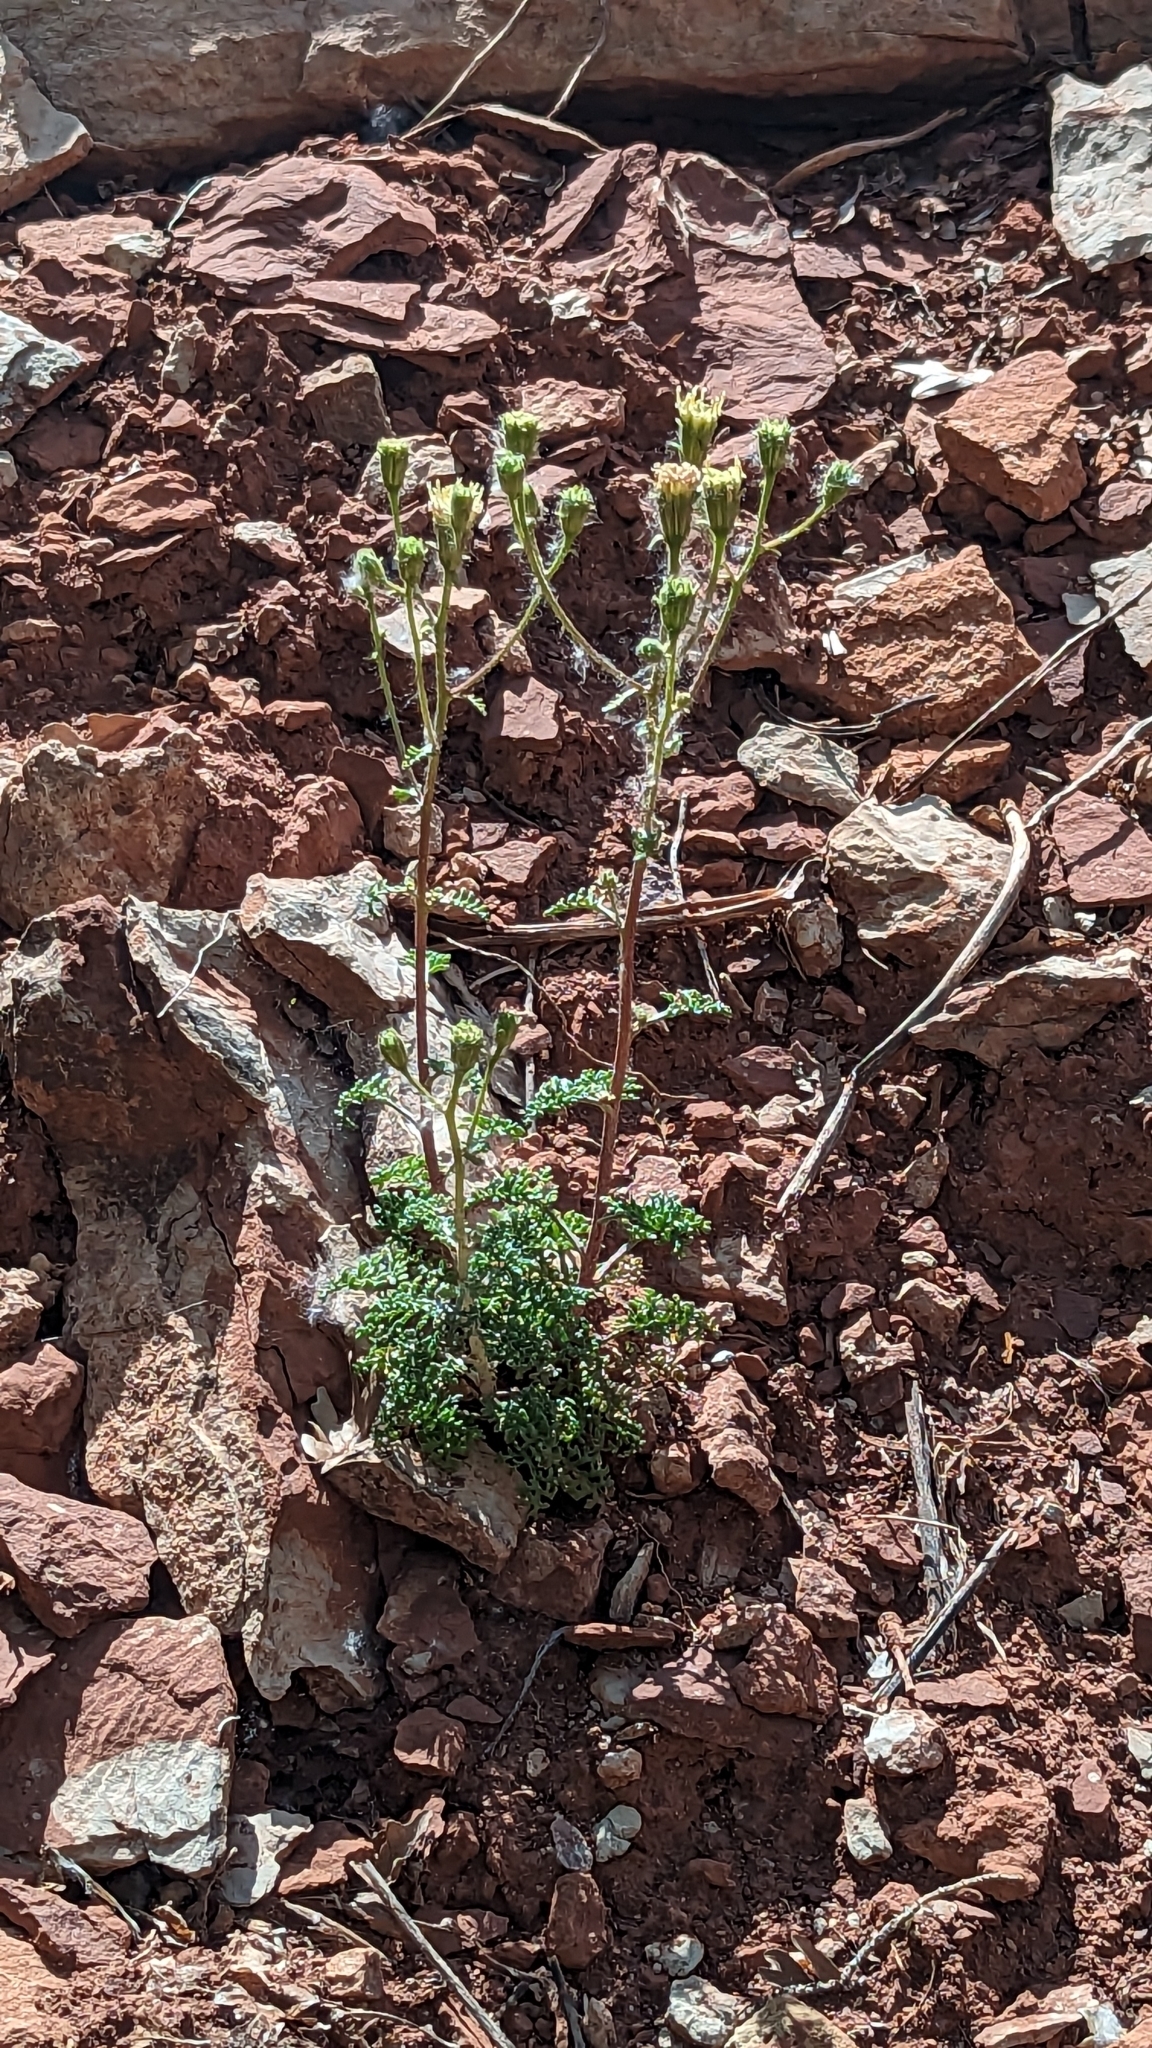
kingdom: Plantae
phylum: Tracheophyta
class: Magnoliopsida
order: Asterales
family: Asteraceae
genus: Chaenactis
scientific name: Chaenactis douglasii
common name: Hoary pincushion
